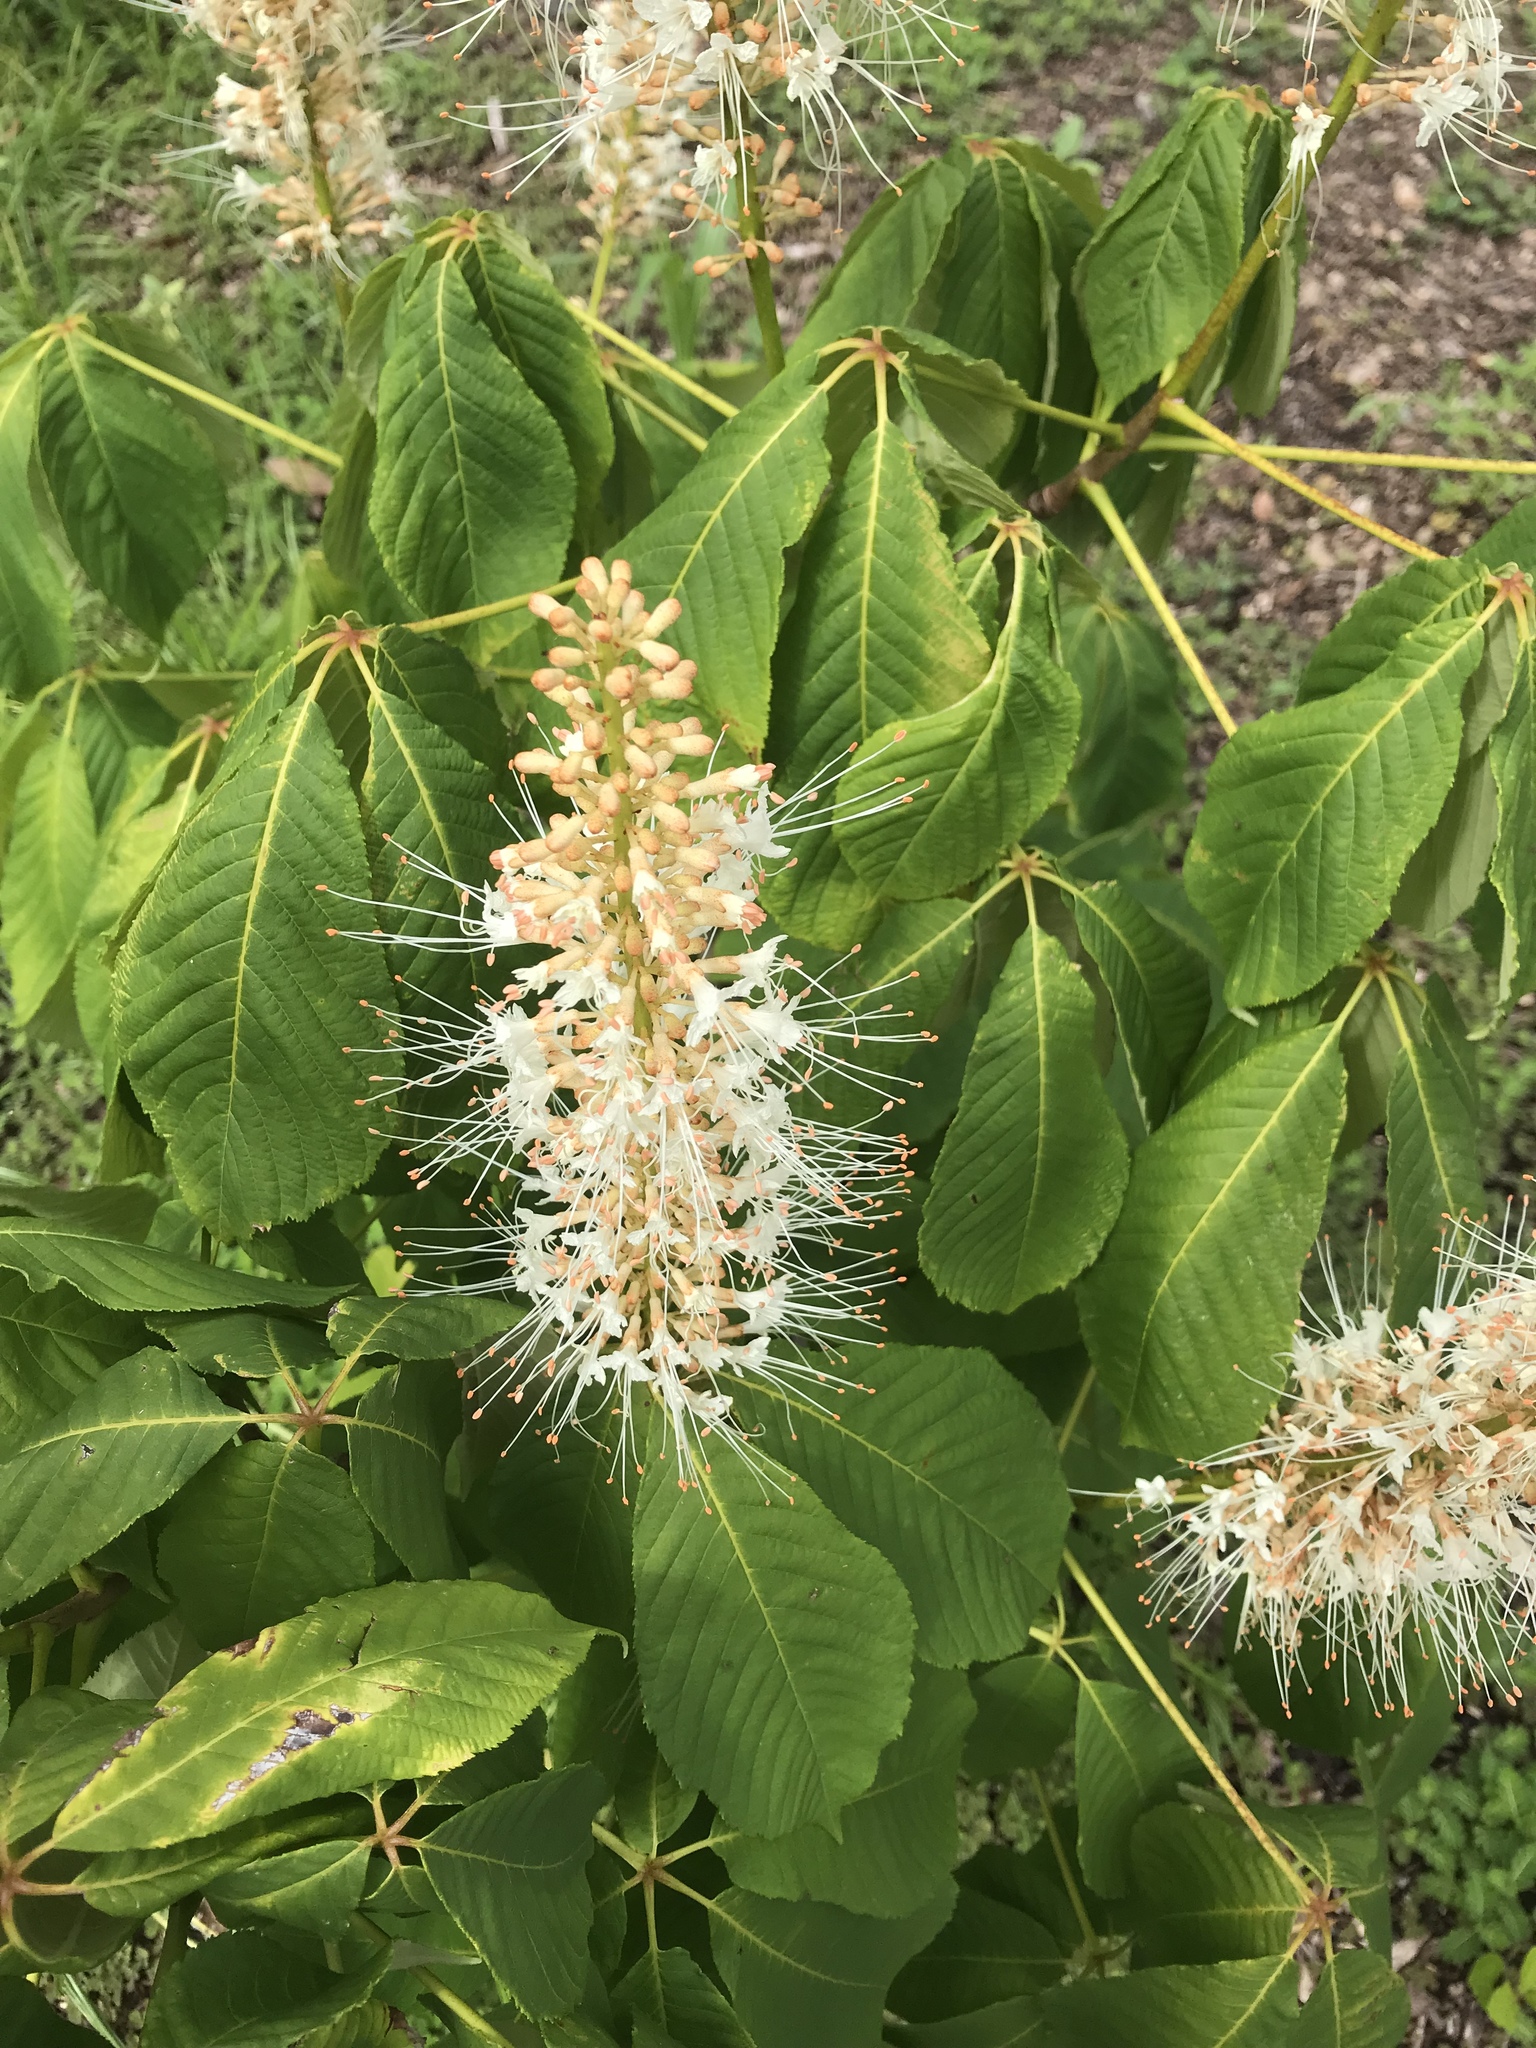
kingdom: Plantae
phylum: Tracheophyta
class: Magnoliopsida
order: Sapindales
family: Sapindaceae
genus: Aesculus
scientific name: Aesculus parviflora
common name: Bottlebrush buckeye
